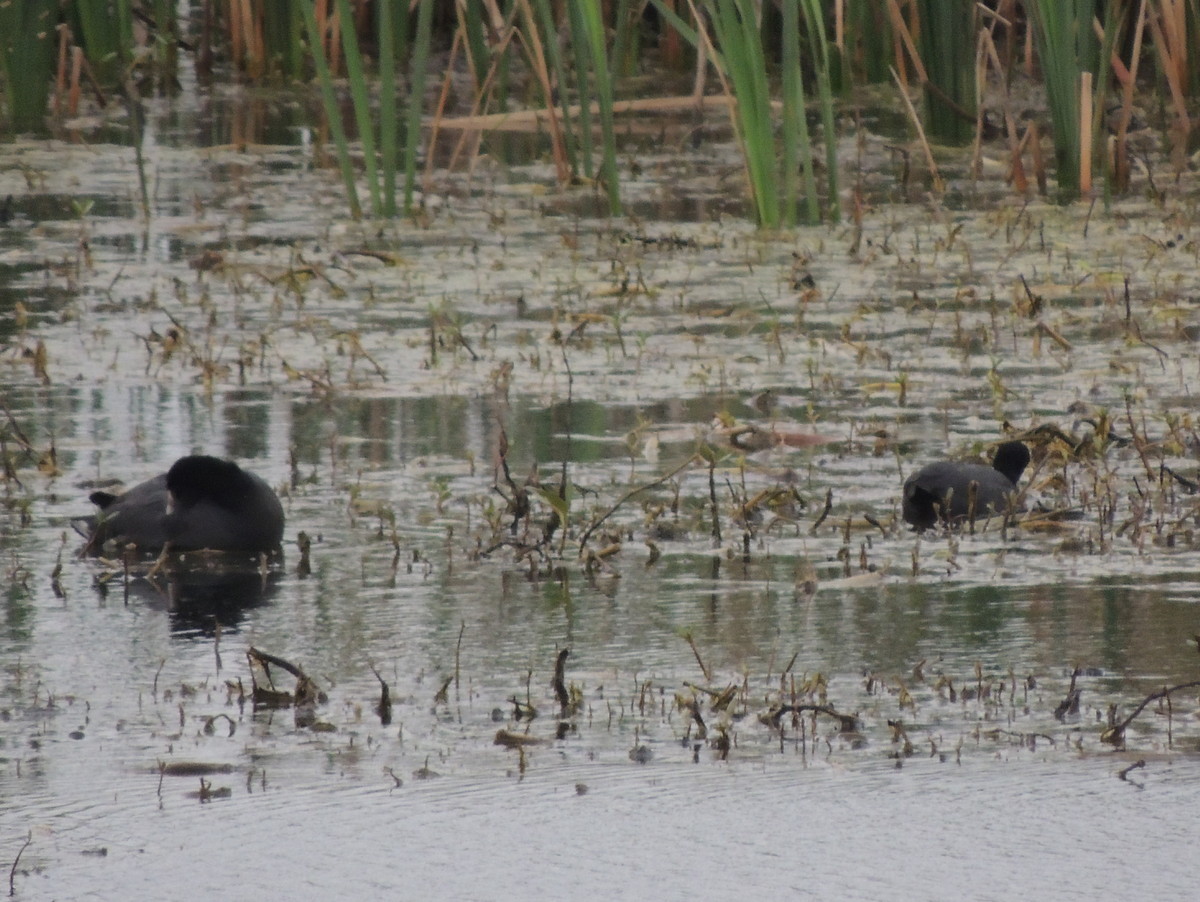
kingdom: Animalia
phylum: Chordata
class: Aves
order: Gruiformes
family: Rallidae
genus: Fulica
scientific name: Fulica americana
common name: American coot
